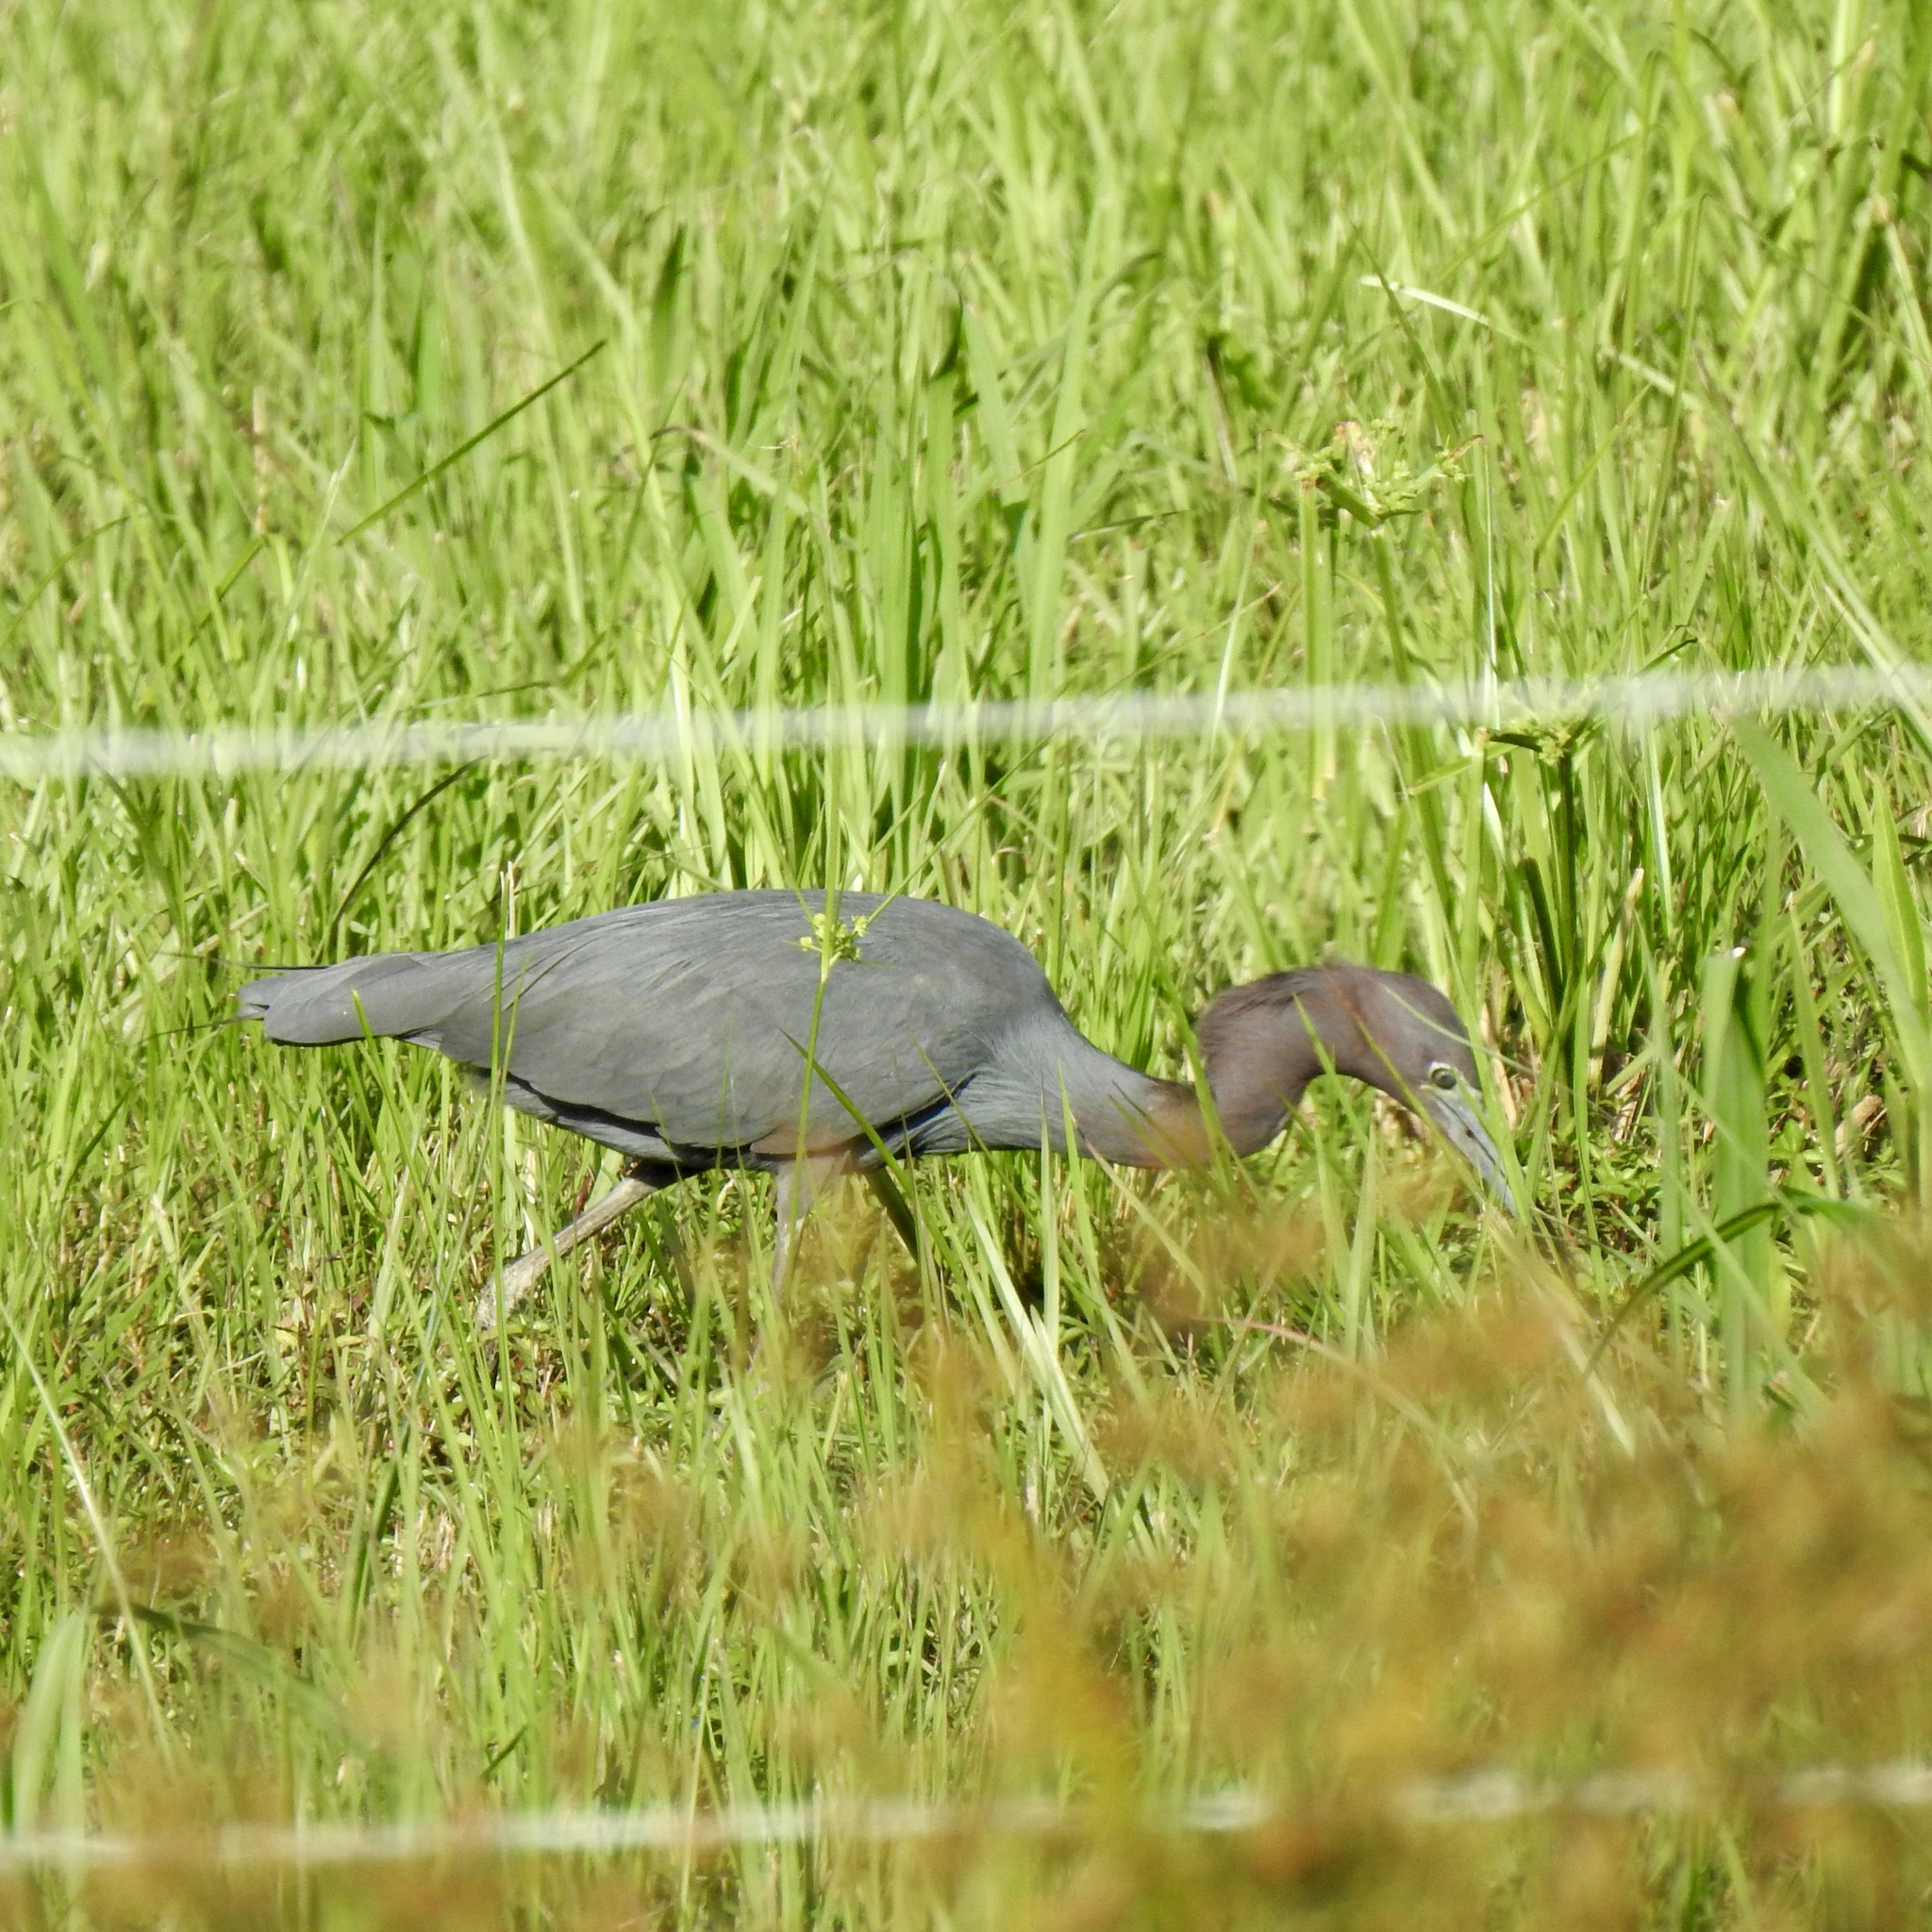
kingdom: Animalia
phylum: Chordata
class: Aves
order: Pelecaniformes
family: Ardeidae
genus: Egretta
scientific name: Egretta caerulea
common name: Little blue heron
